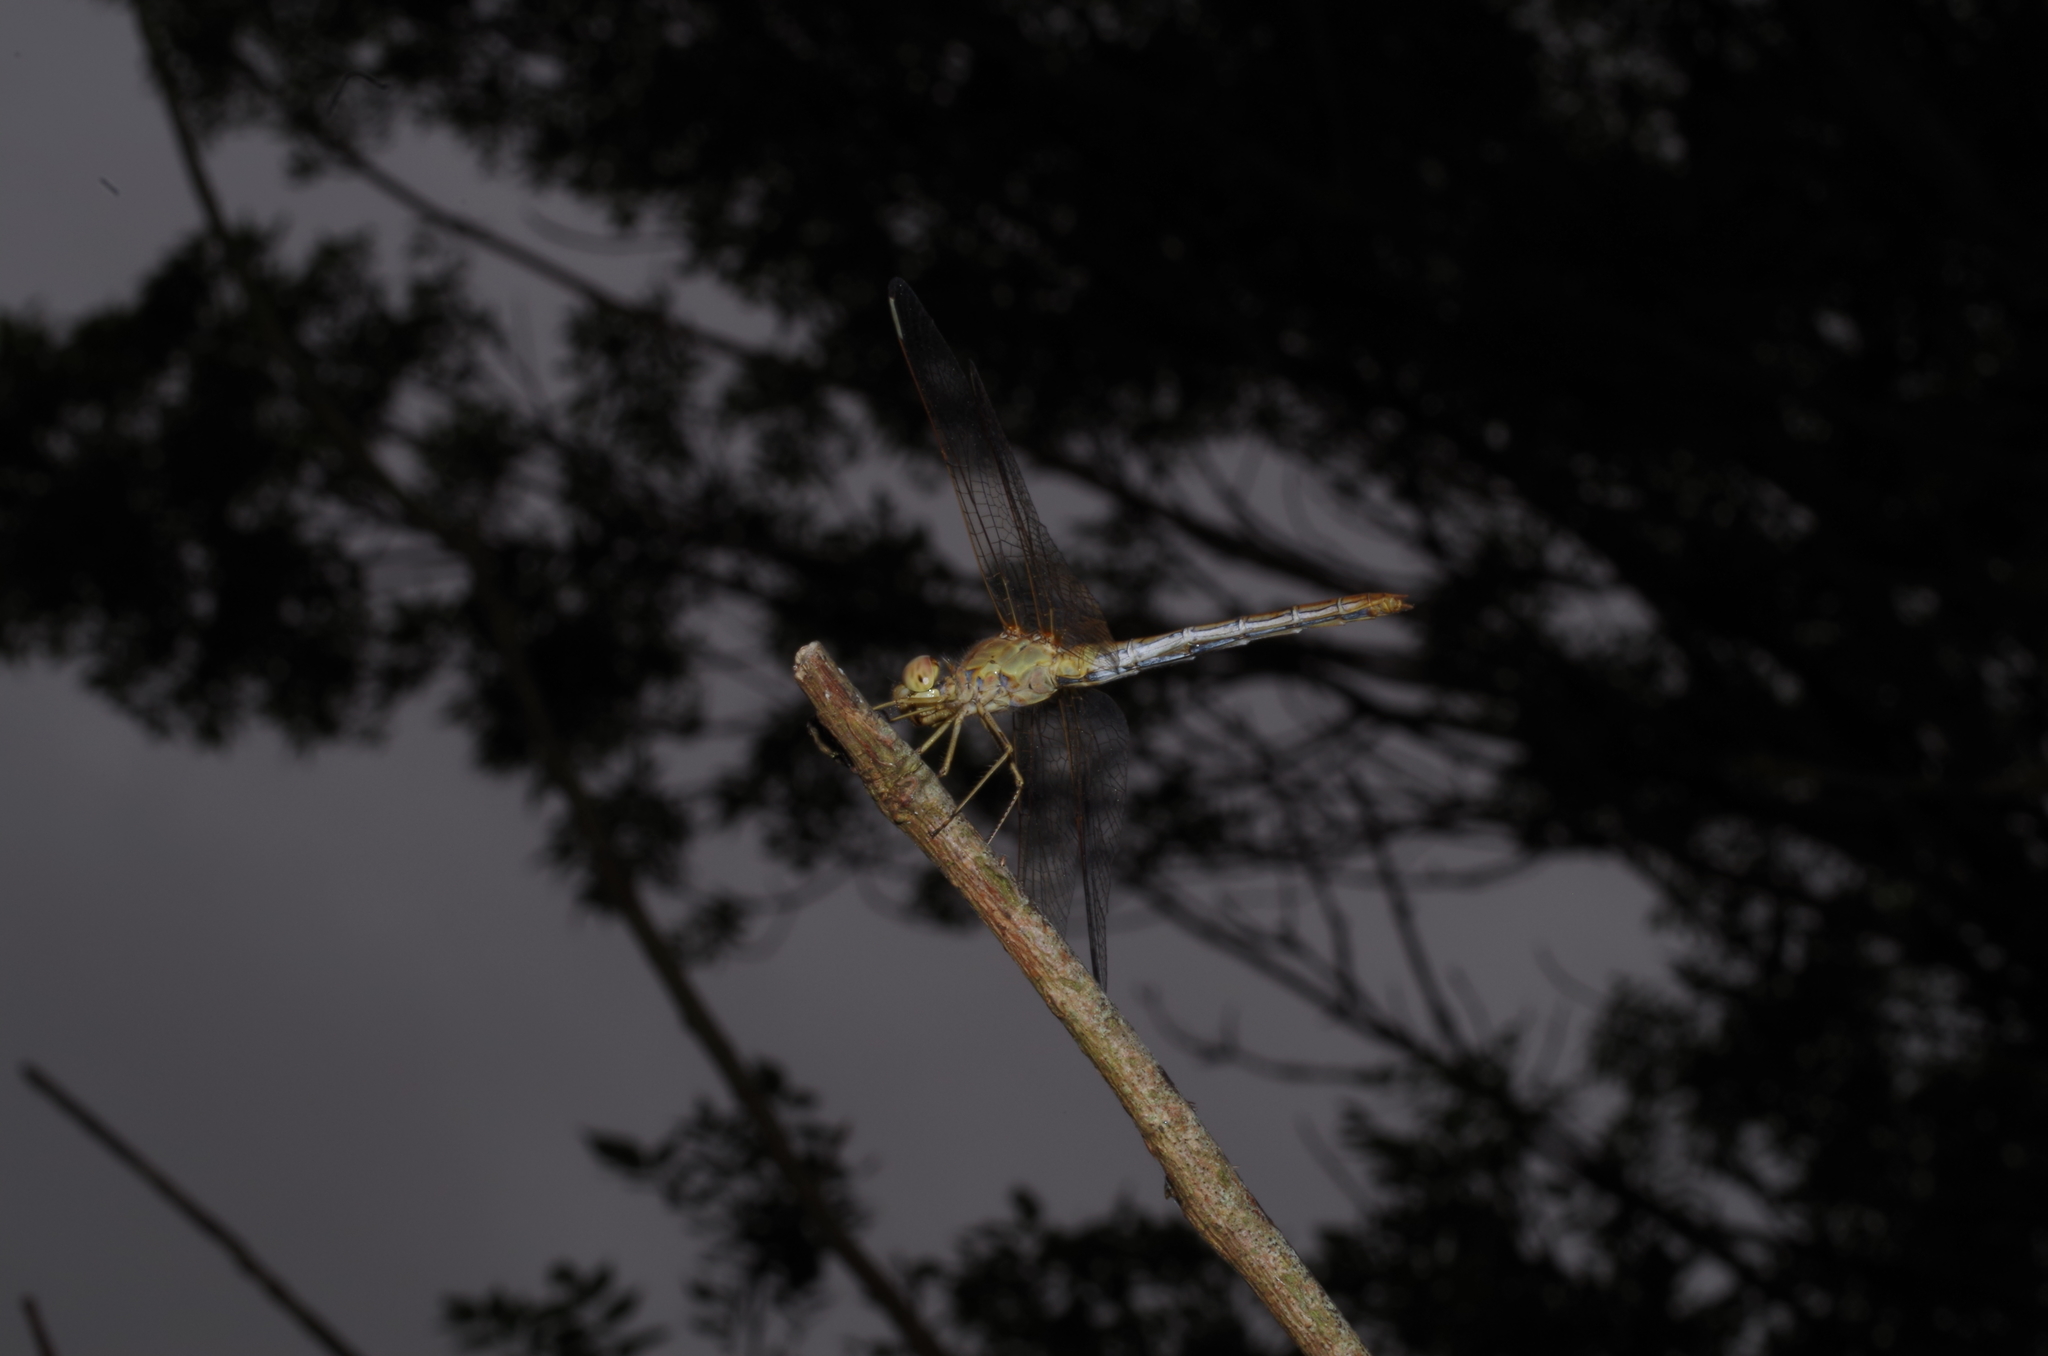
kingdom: Animalia
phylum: Arthropoda
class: Insecta
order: Odonata
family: Libellulidae
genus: Sympetrum
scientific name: Sympetrum meridionale
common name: Southern darter
